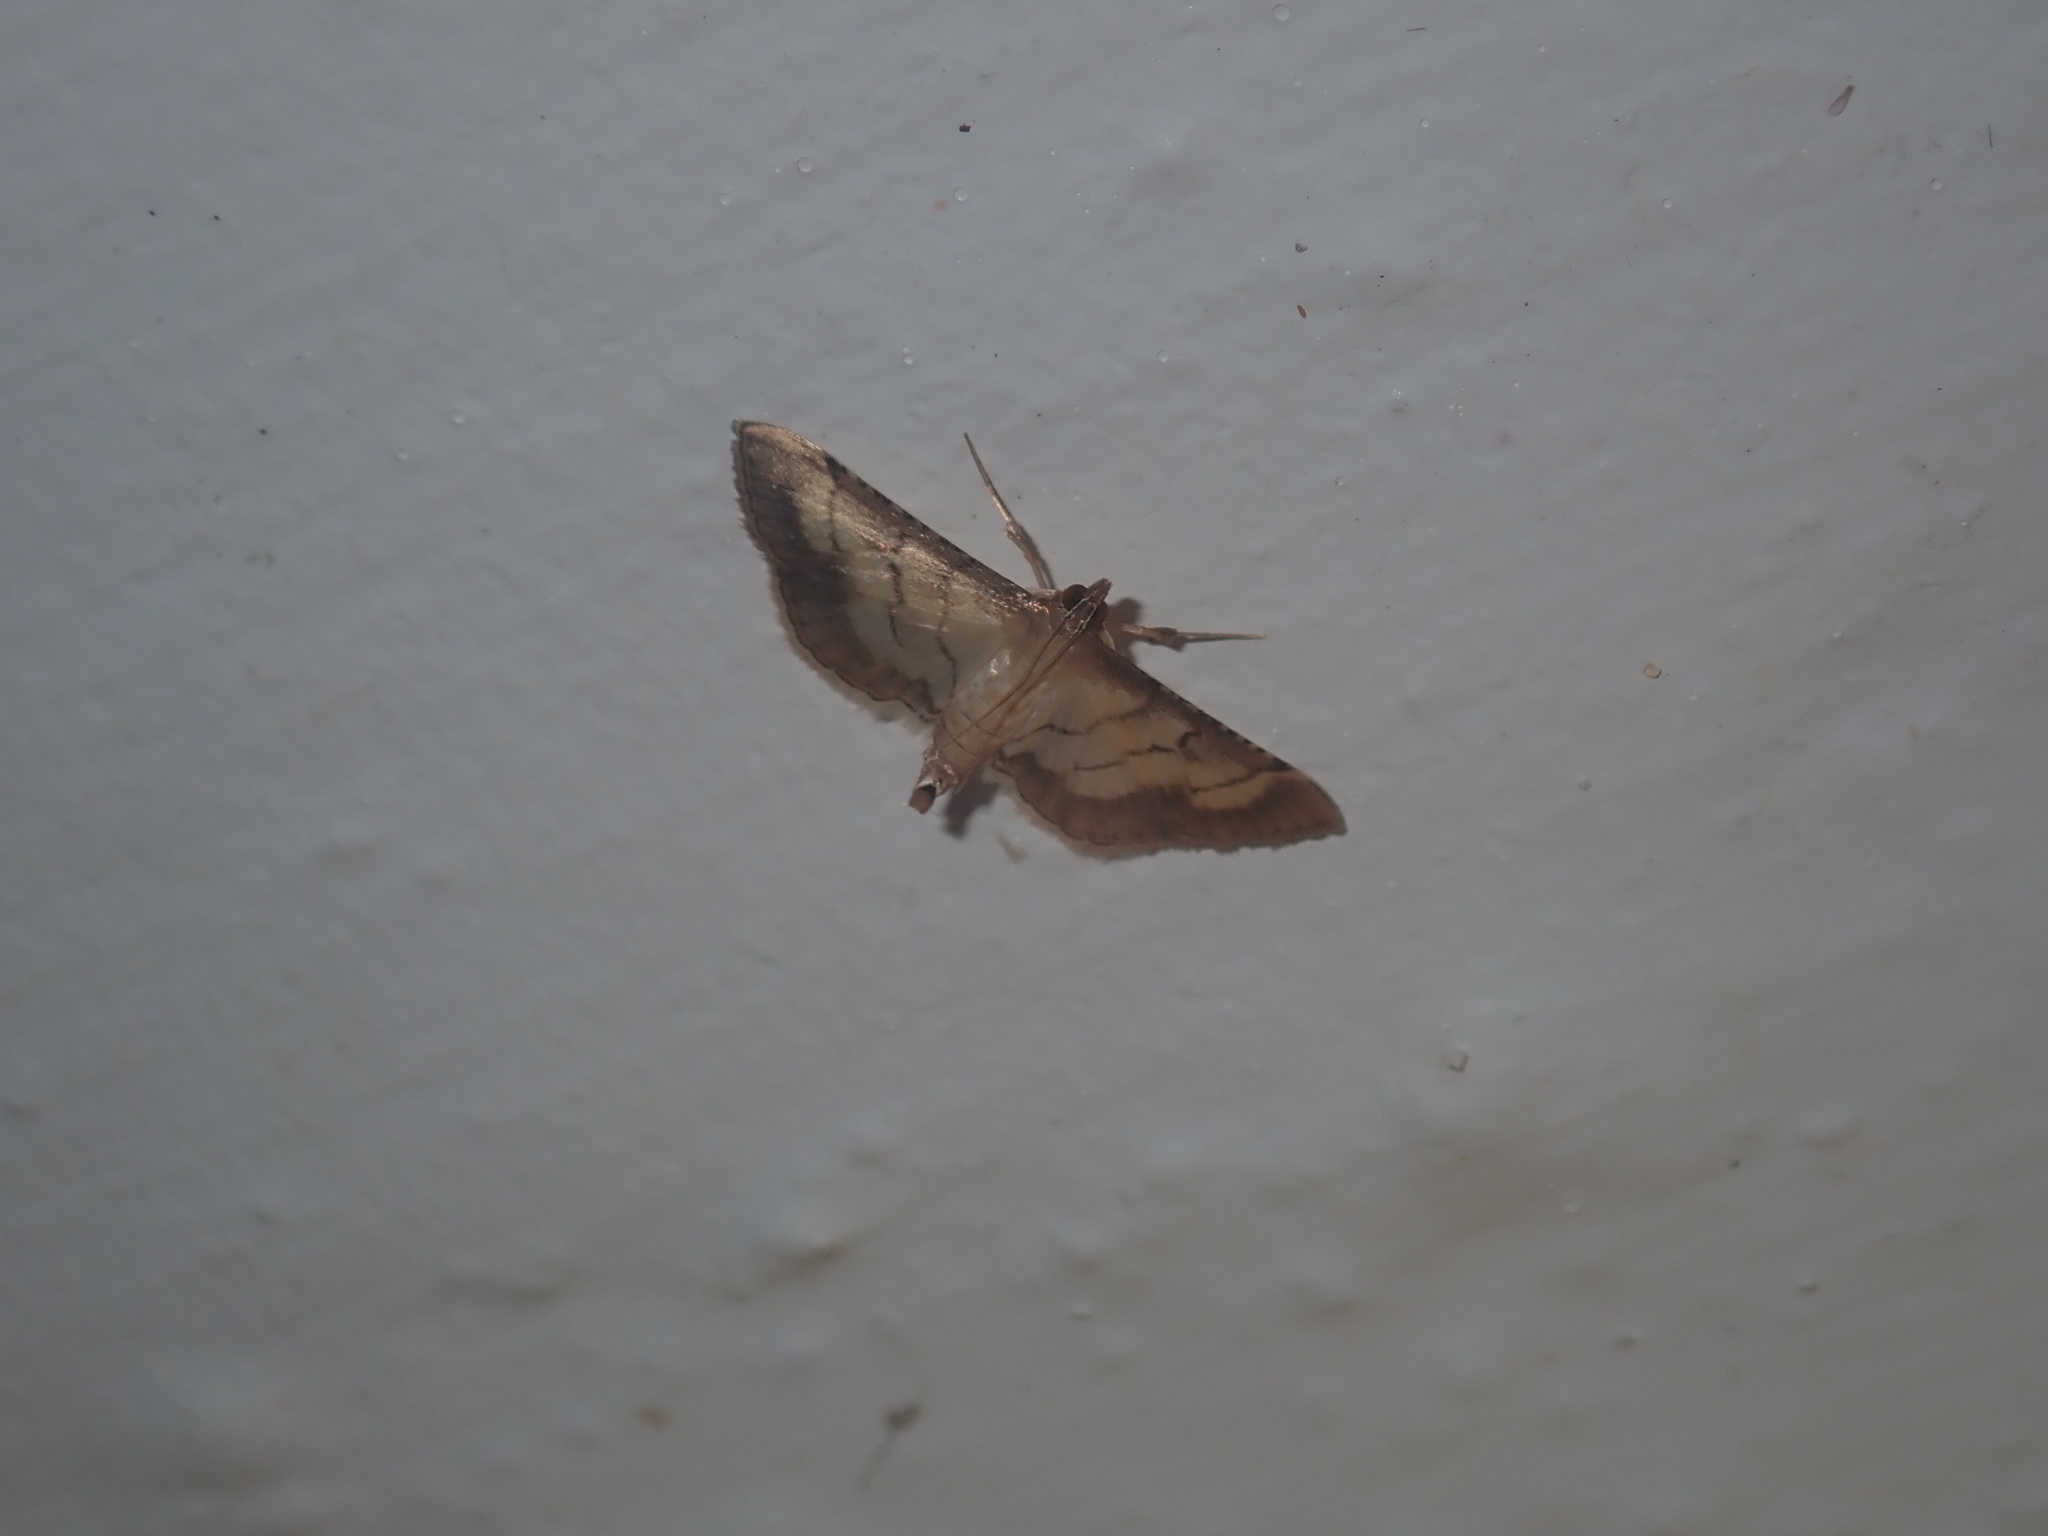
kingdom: Animalia
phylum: Arthropoda
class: Insecta
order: Lepidoptera
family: Crambidae
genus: Cnaphalocrocis
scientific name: Cnaphalocrocis poeyalis
